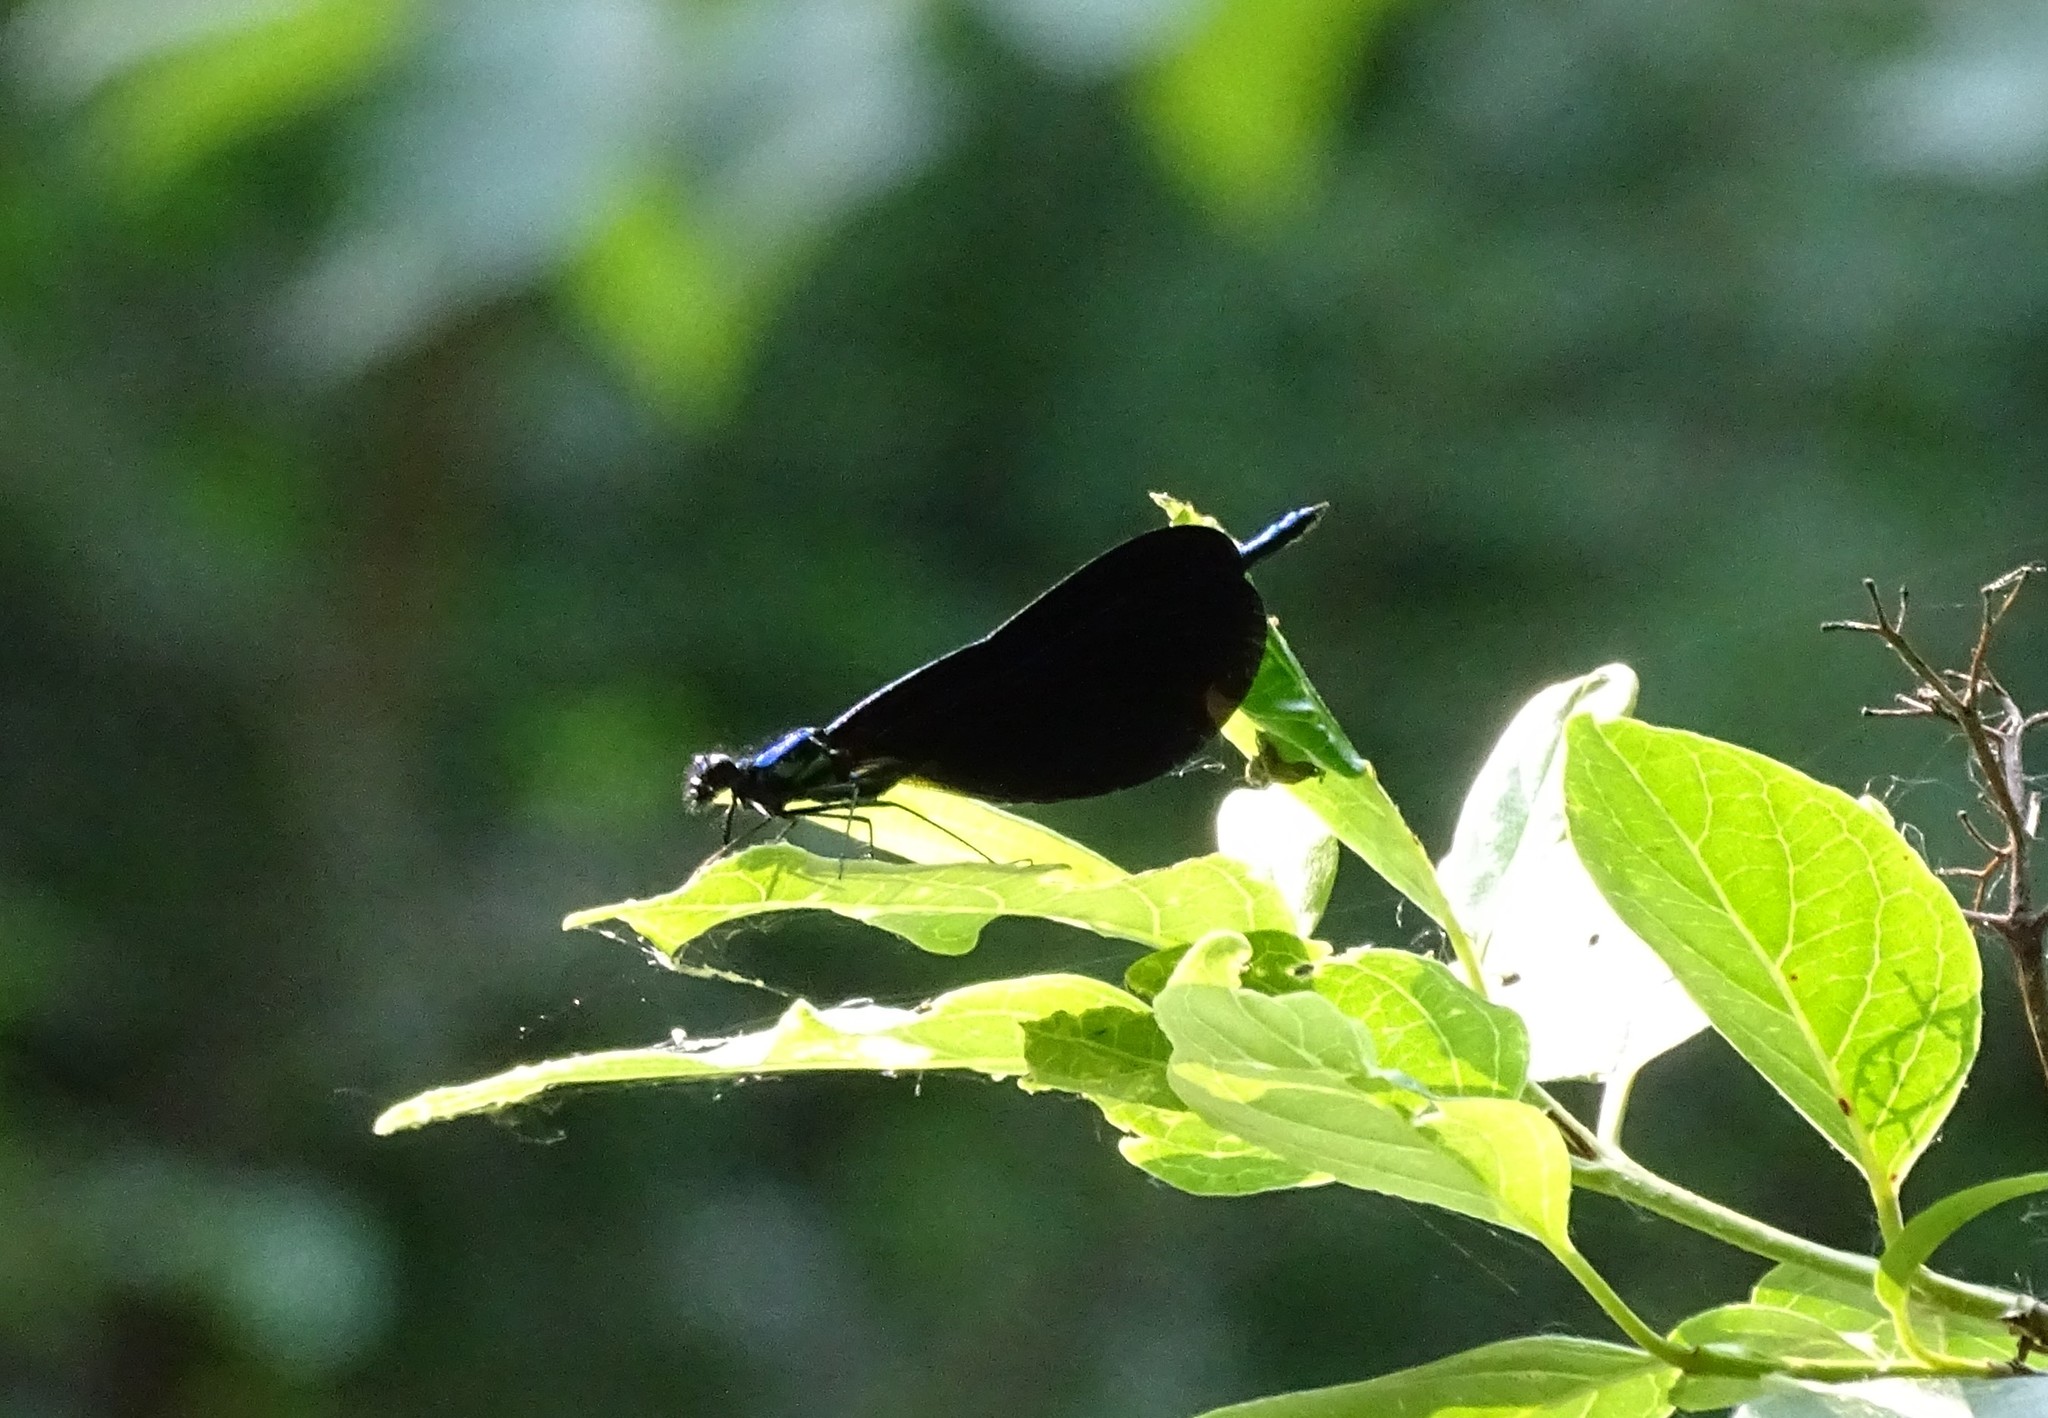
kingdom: Animalia
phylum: Arthropoda
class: Insecta
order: Odonata
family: Calopterygidae
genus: Calopteryx
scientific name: Calopteryx maculata
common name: Ebony jewelwing
